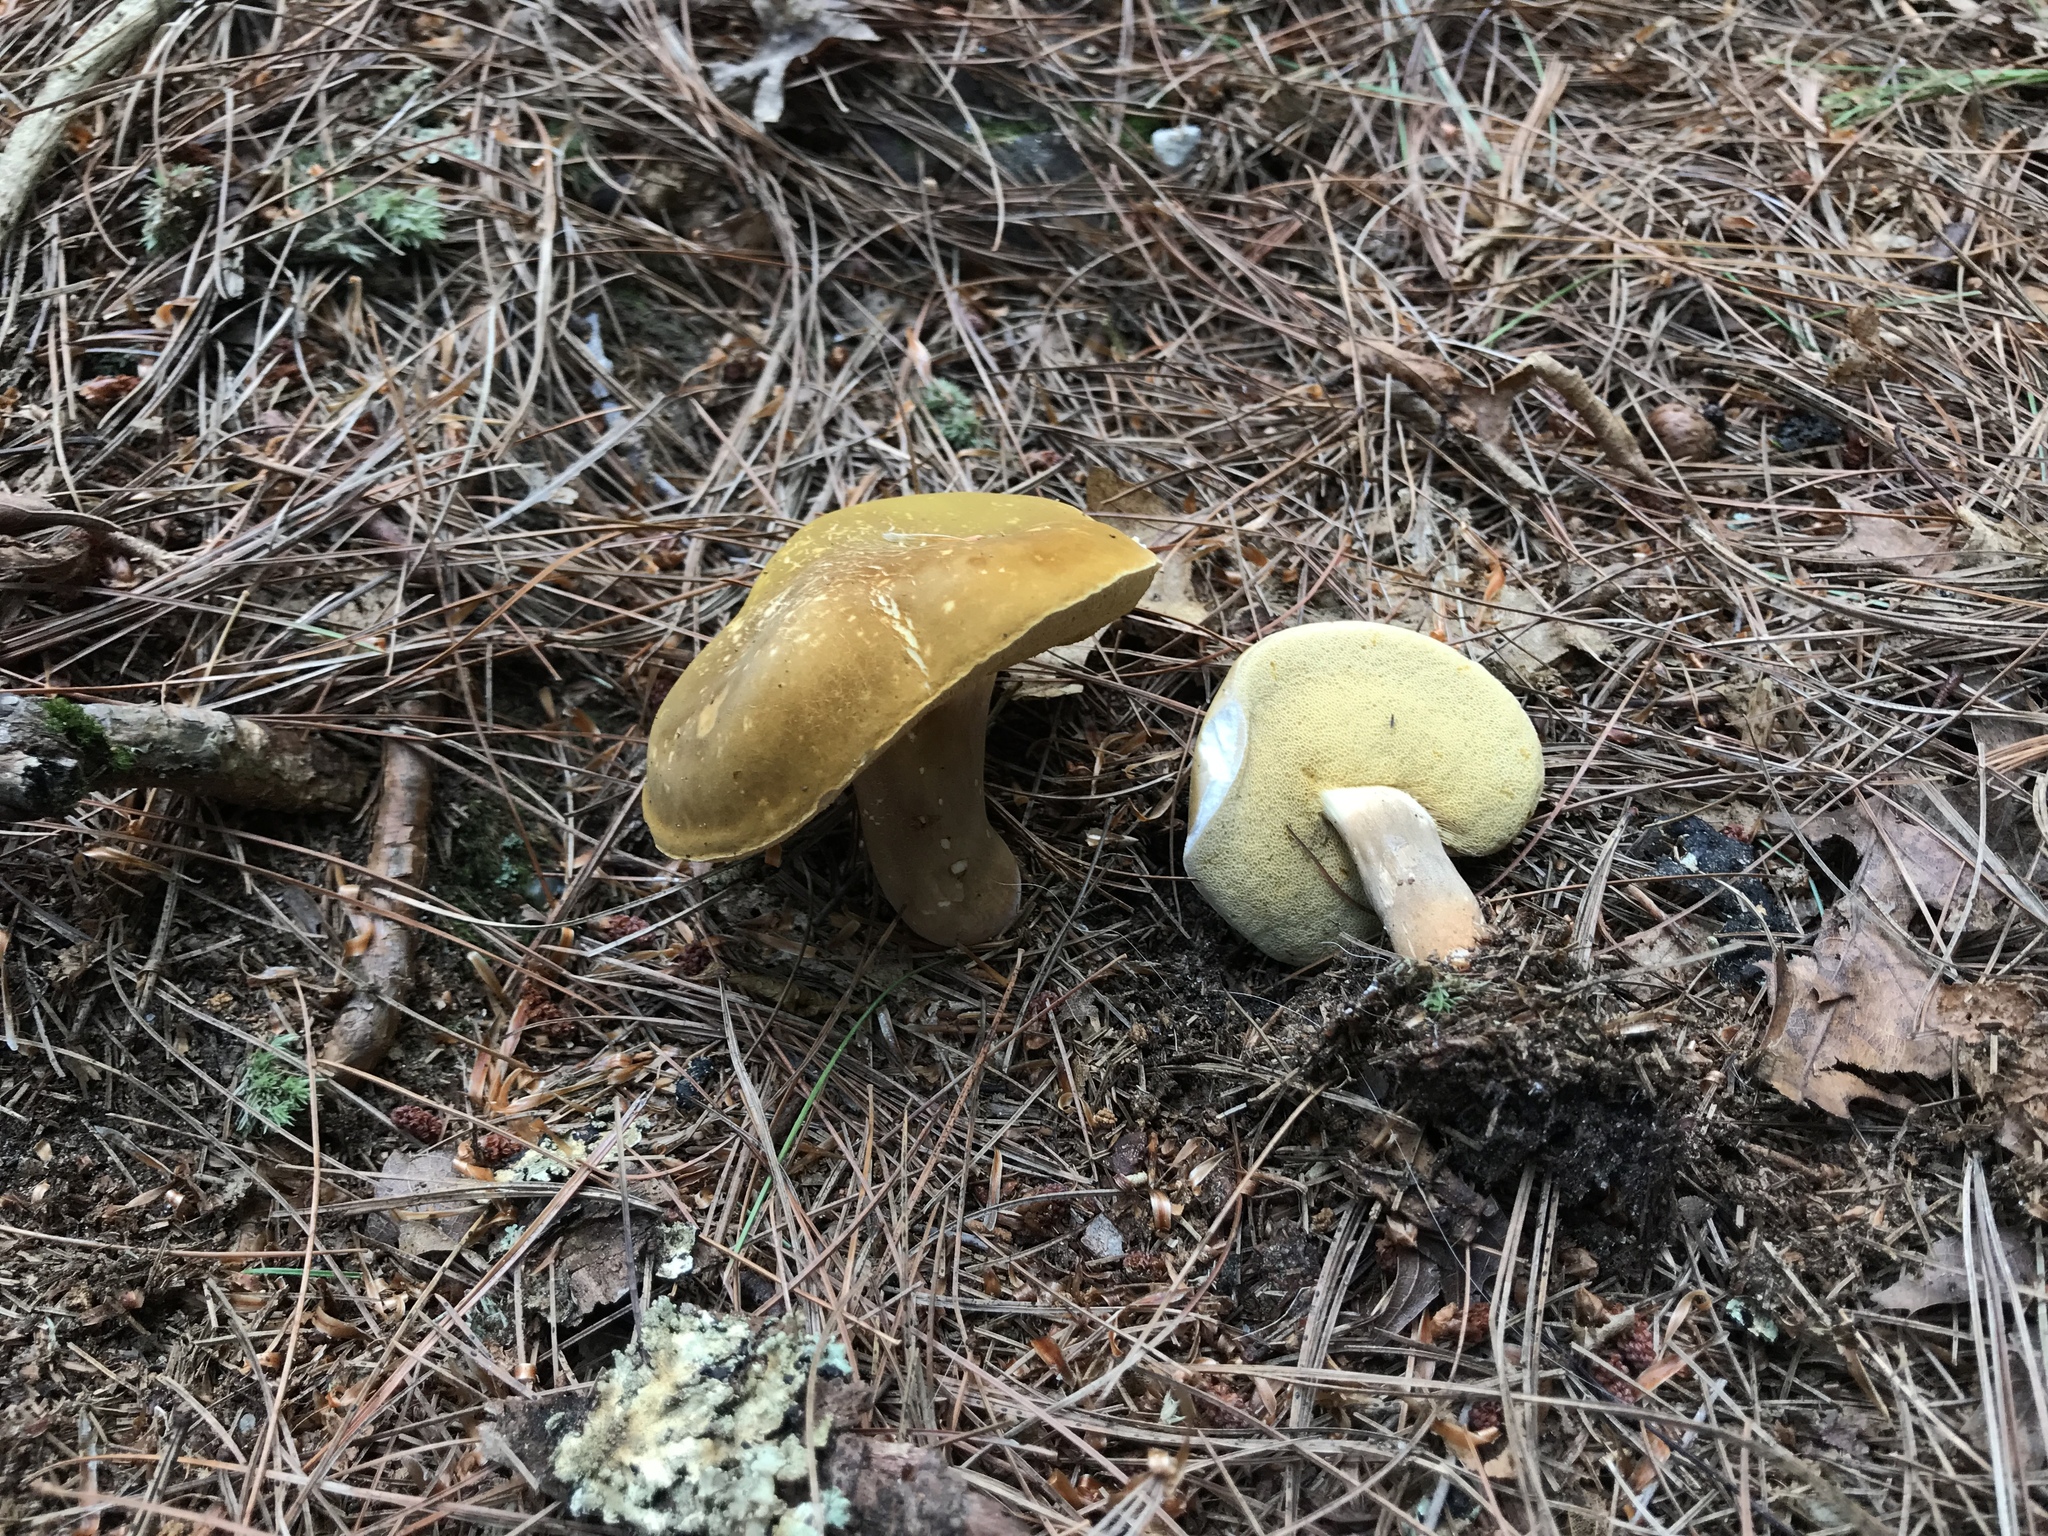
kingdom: Fungi
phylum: Basidiomycota
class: Agaricomycetes
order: Boletales
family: Boletaceae
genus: Xanthoconium
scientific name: Xanthoconium affine
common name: Spotted bolete
